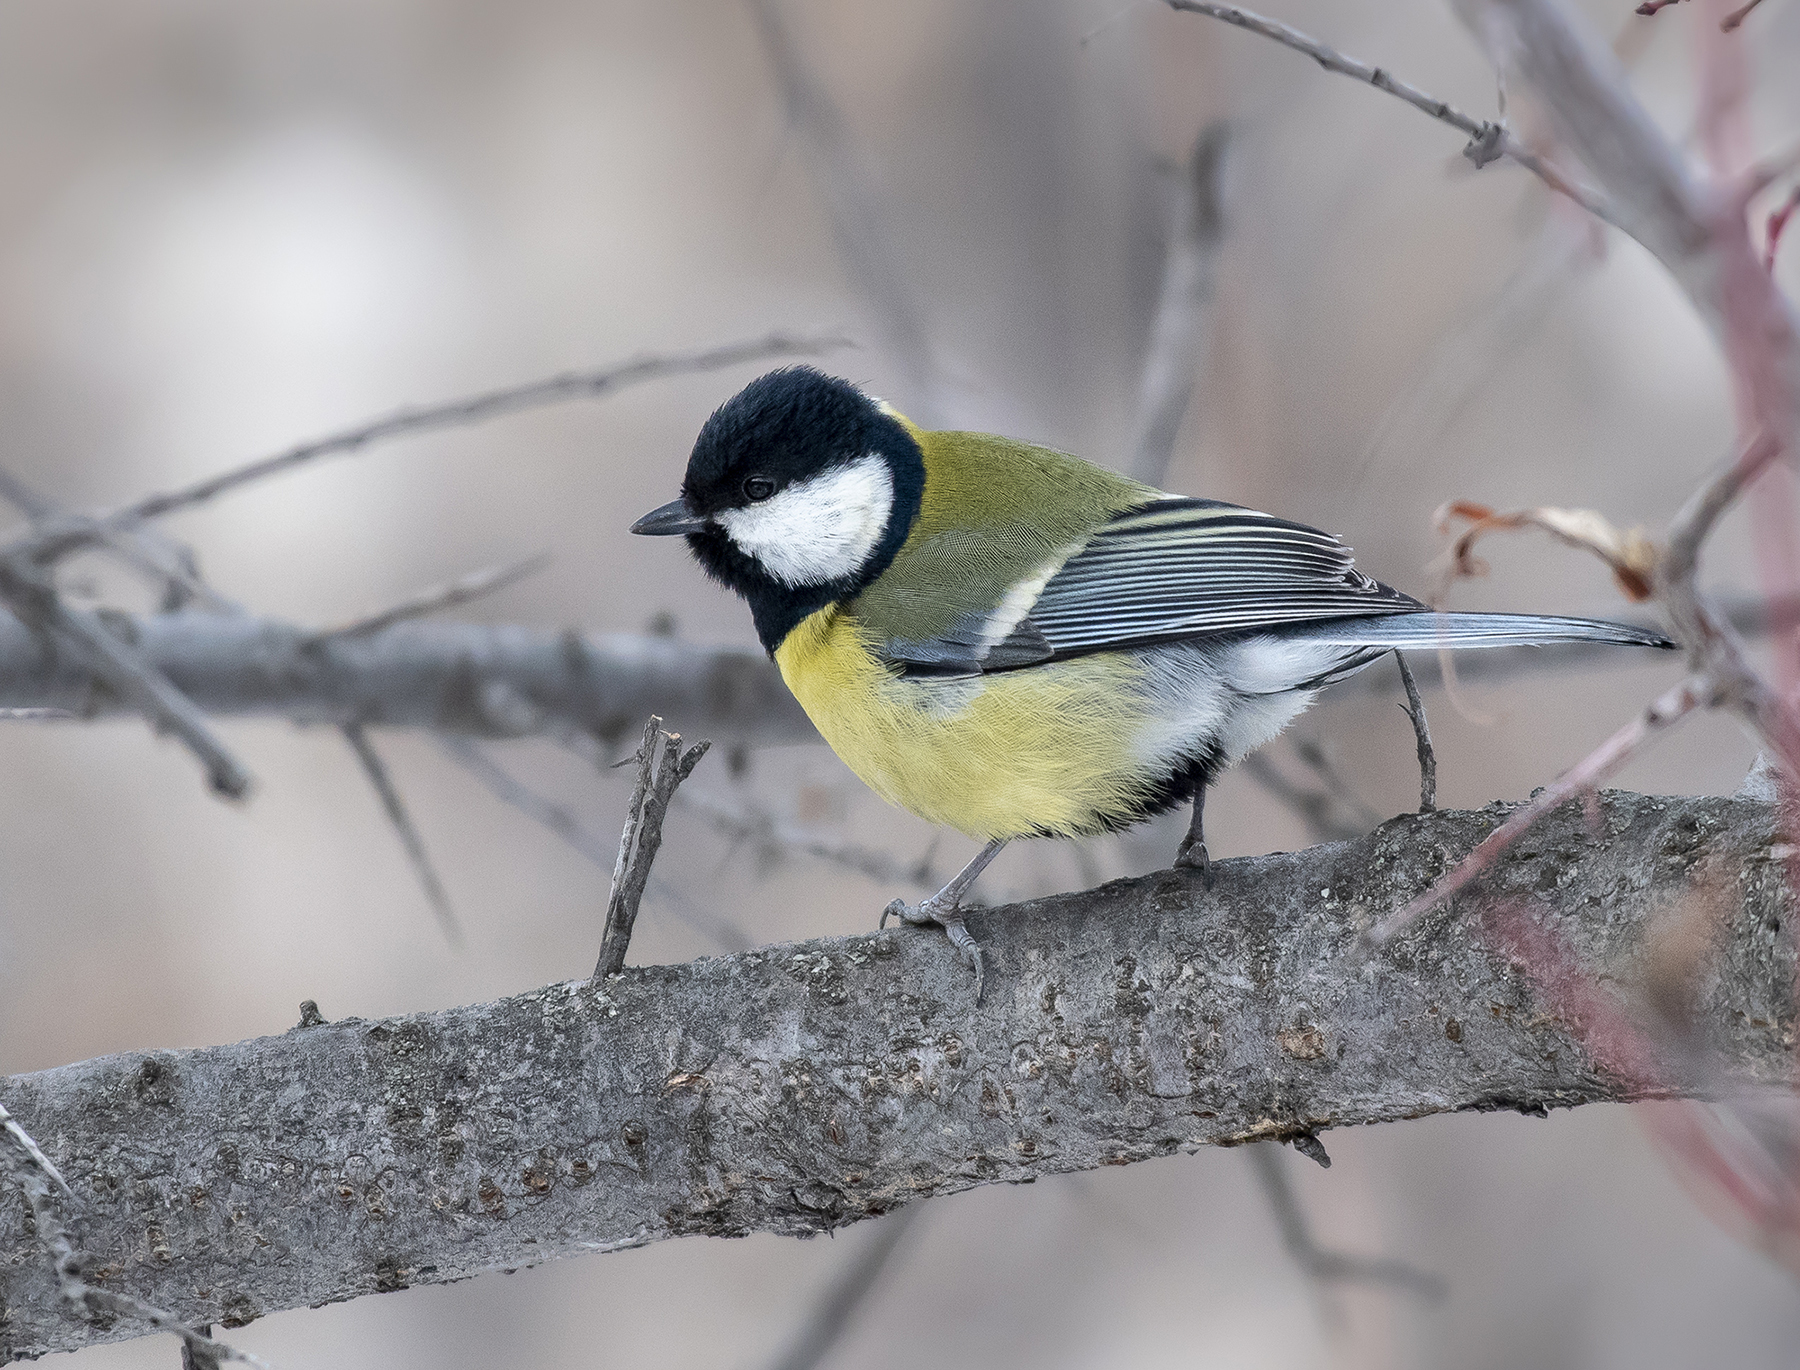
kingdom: Animalia
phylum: Chordata
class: Aves
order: Passeriformes
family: Paridae
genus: Parus
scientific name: Parus major
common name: Great tit
